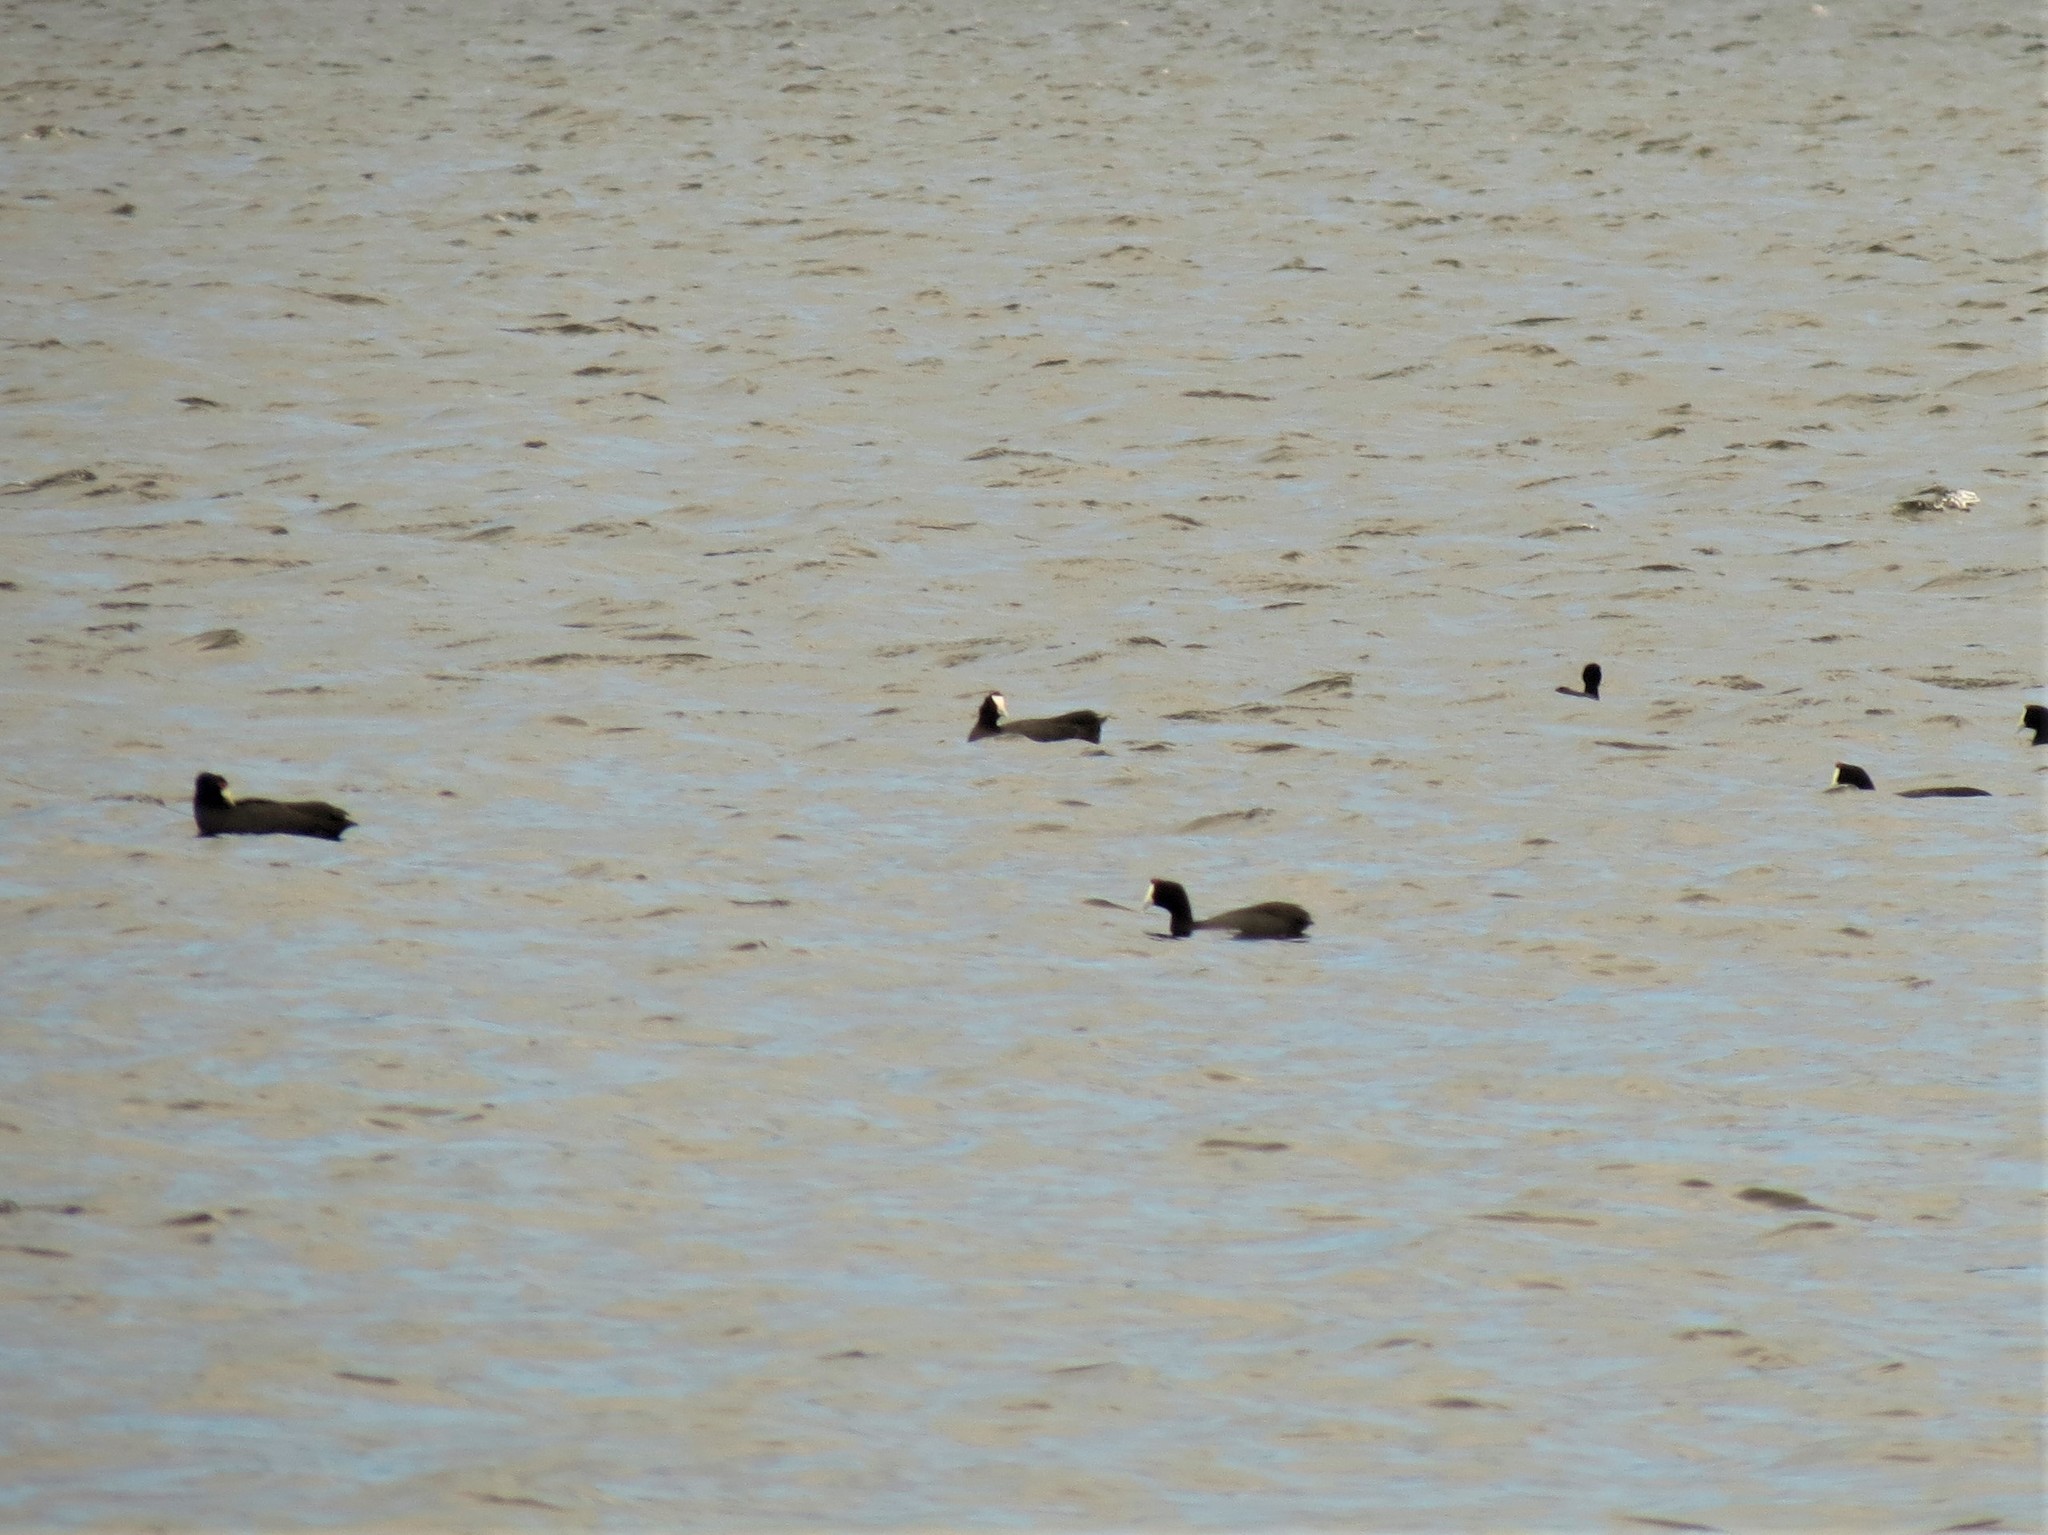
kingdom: Animalia
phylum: Chordata
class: Aves
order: Gruiformes
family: Rallidae
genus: Fulica
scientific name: Fulica cristata
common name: Red-knobbed coot
